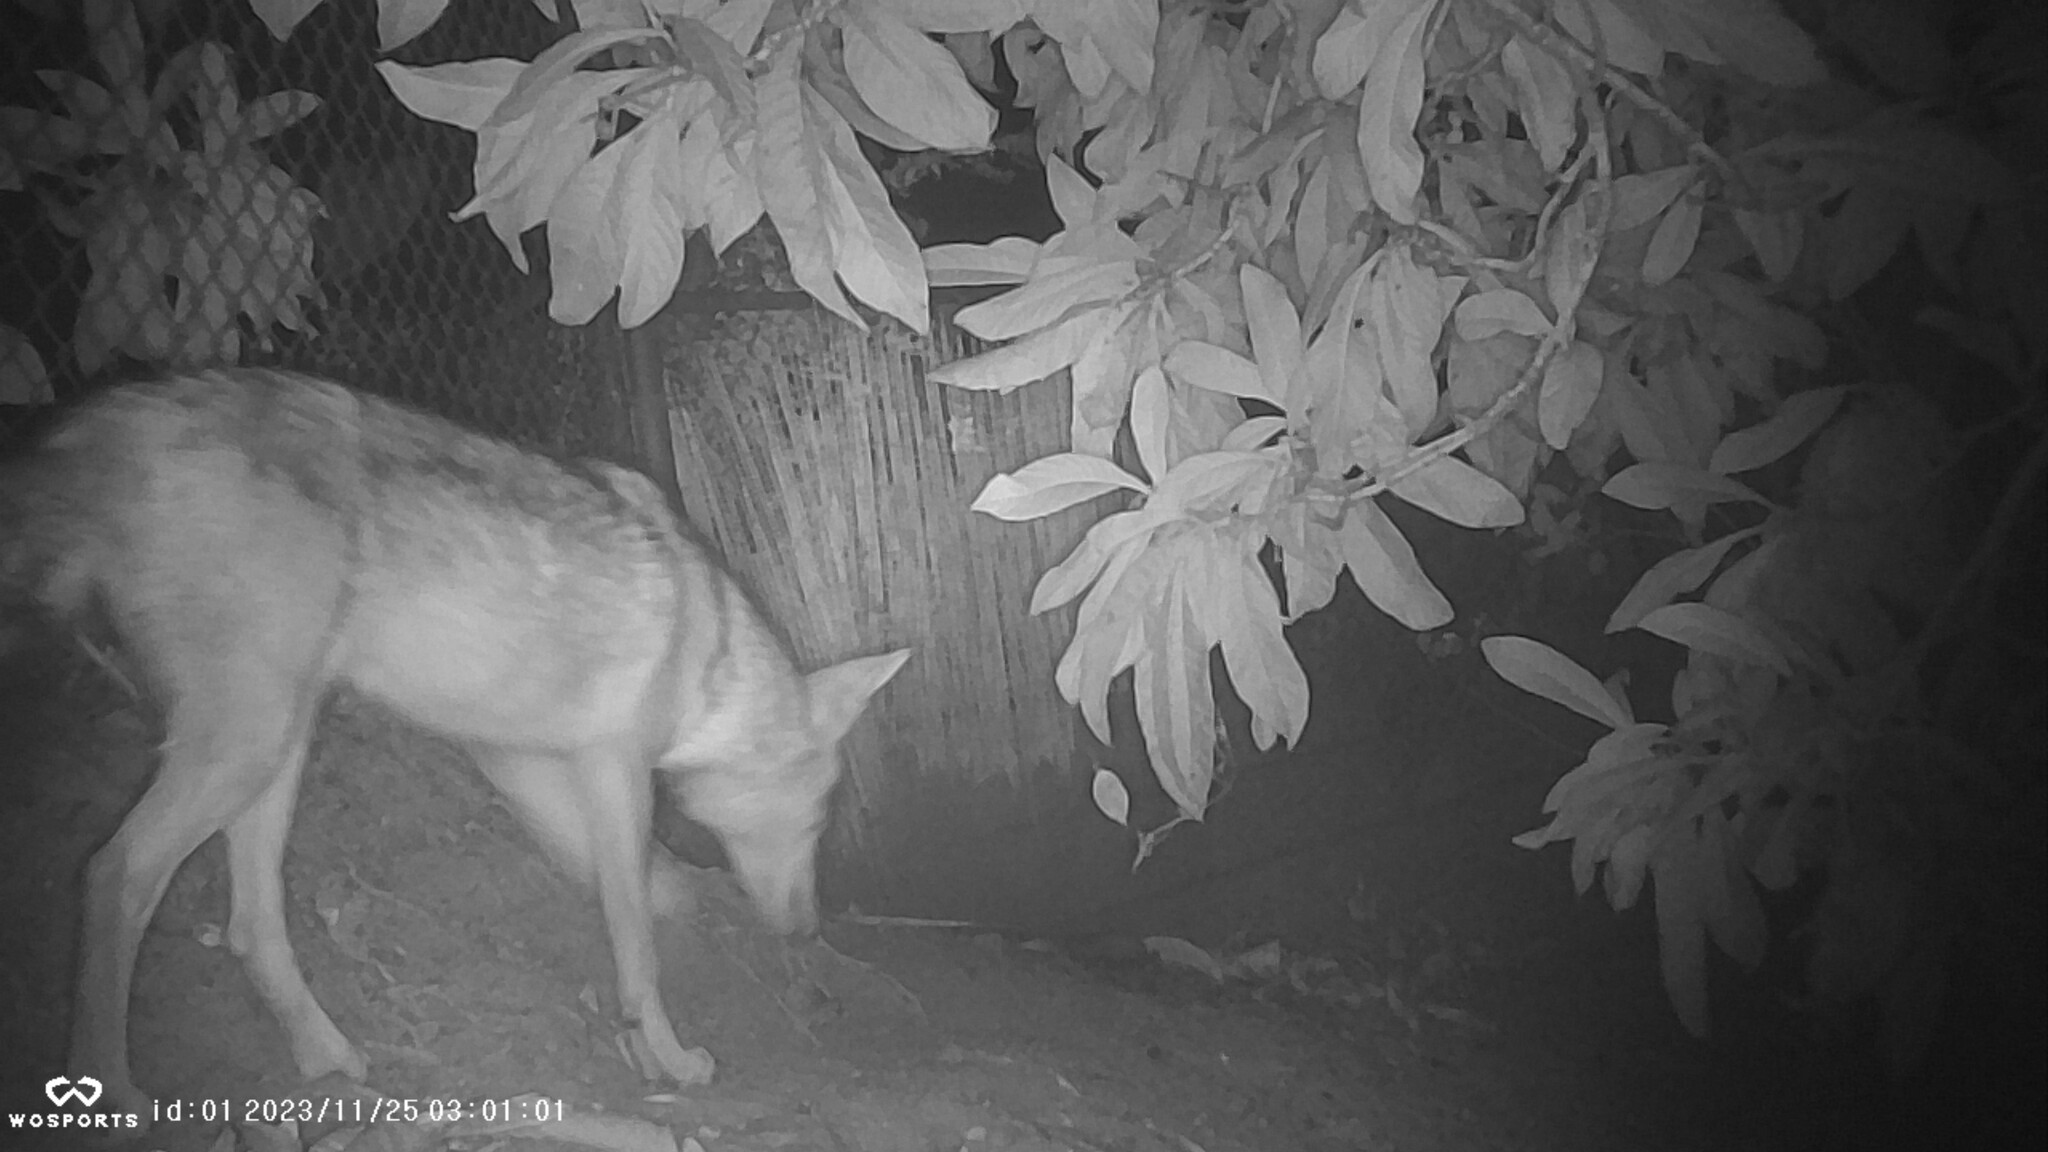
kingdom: Animalia
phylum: Chordata
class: Mammalia
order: Carnivora
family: Canidae
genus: Canis
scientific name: Canis latrans
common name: Coyote
